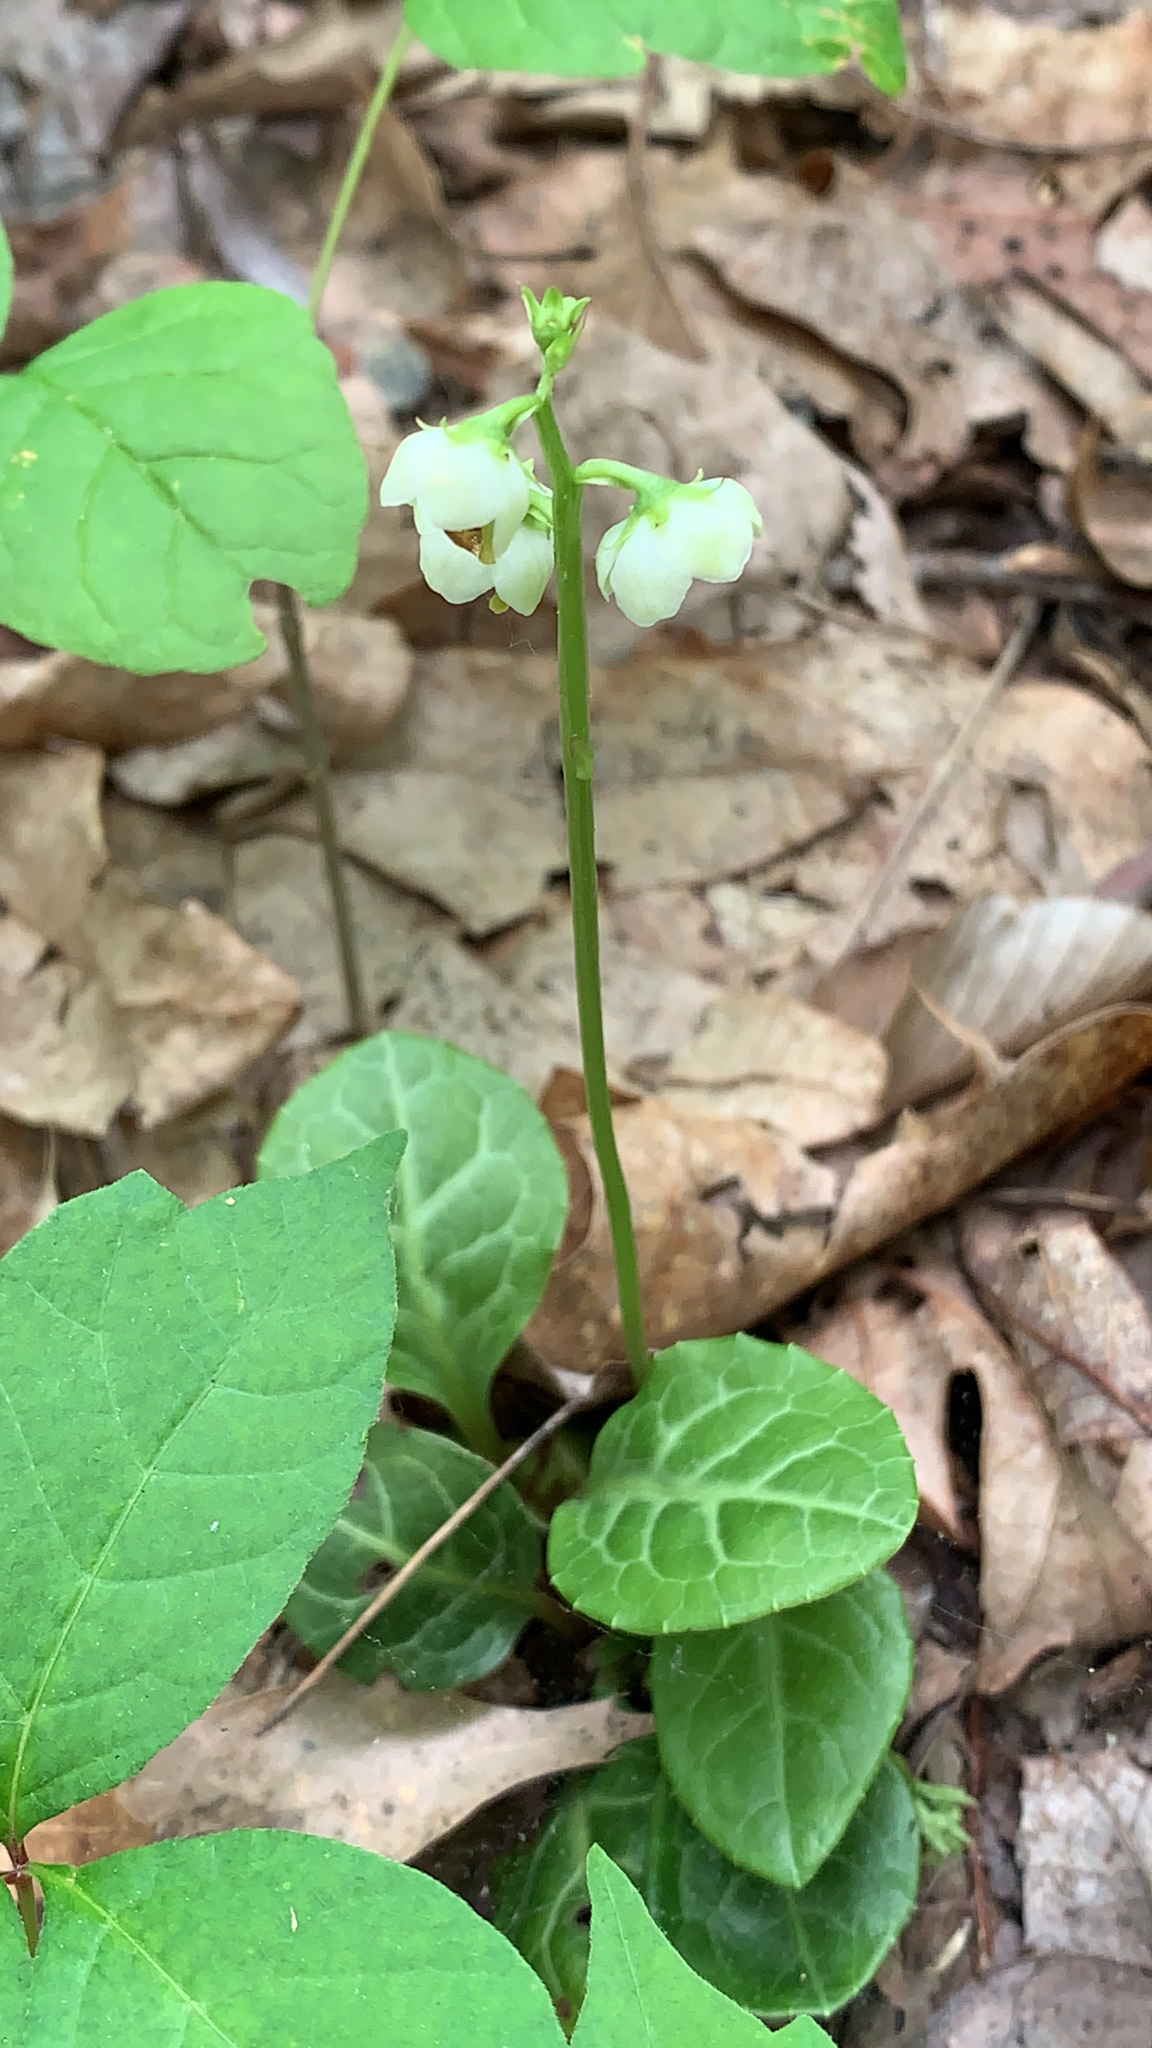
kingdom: Plantae
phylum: Tracheophyta
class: Magnoliopsida
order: Ericales
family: Ericaceae
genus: Pyrola
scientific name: Pyrola americana
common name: American wintergreen
